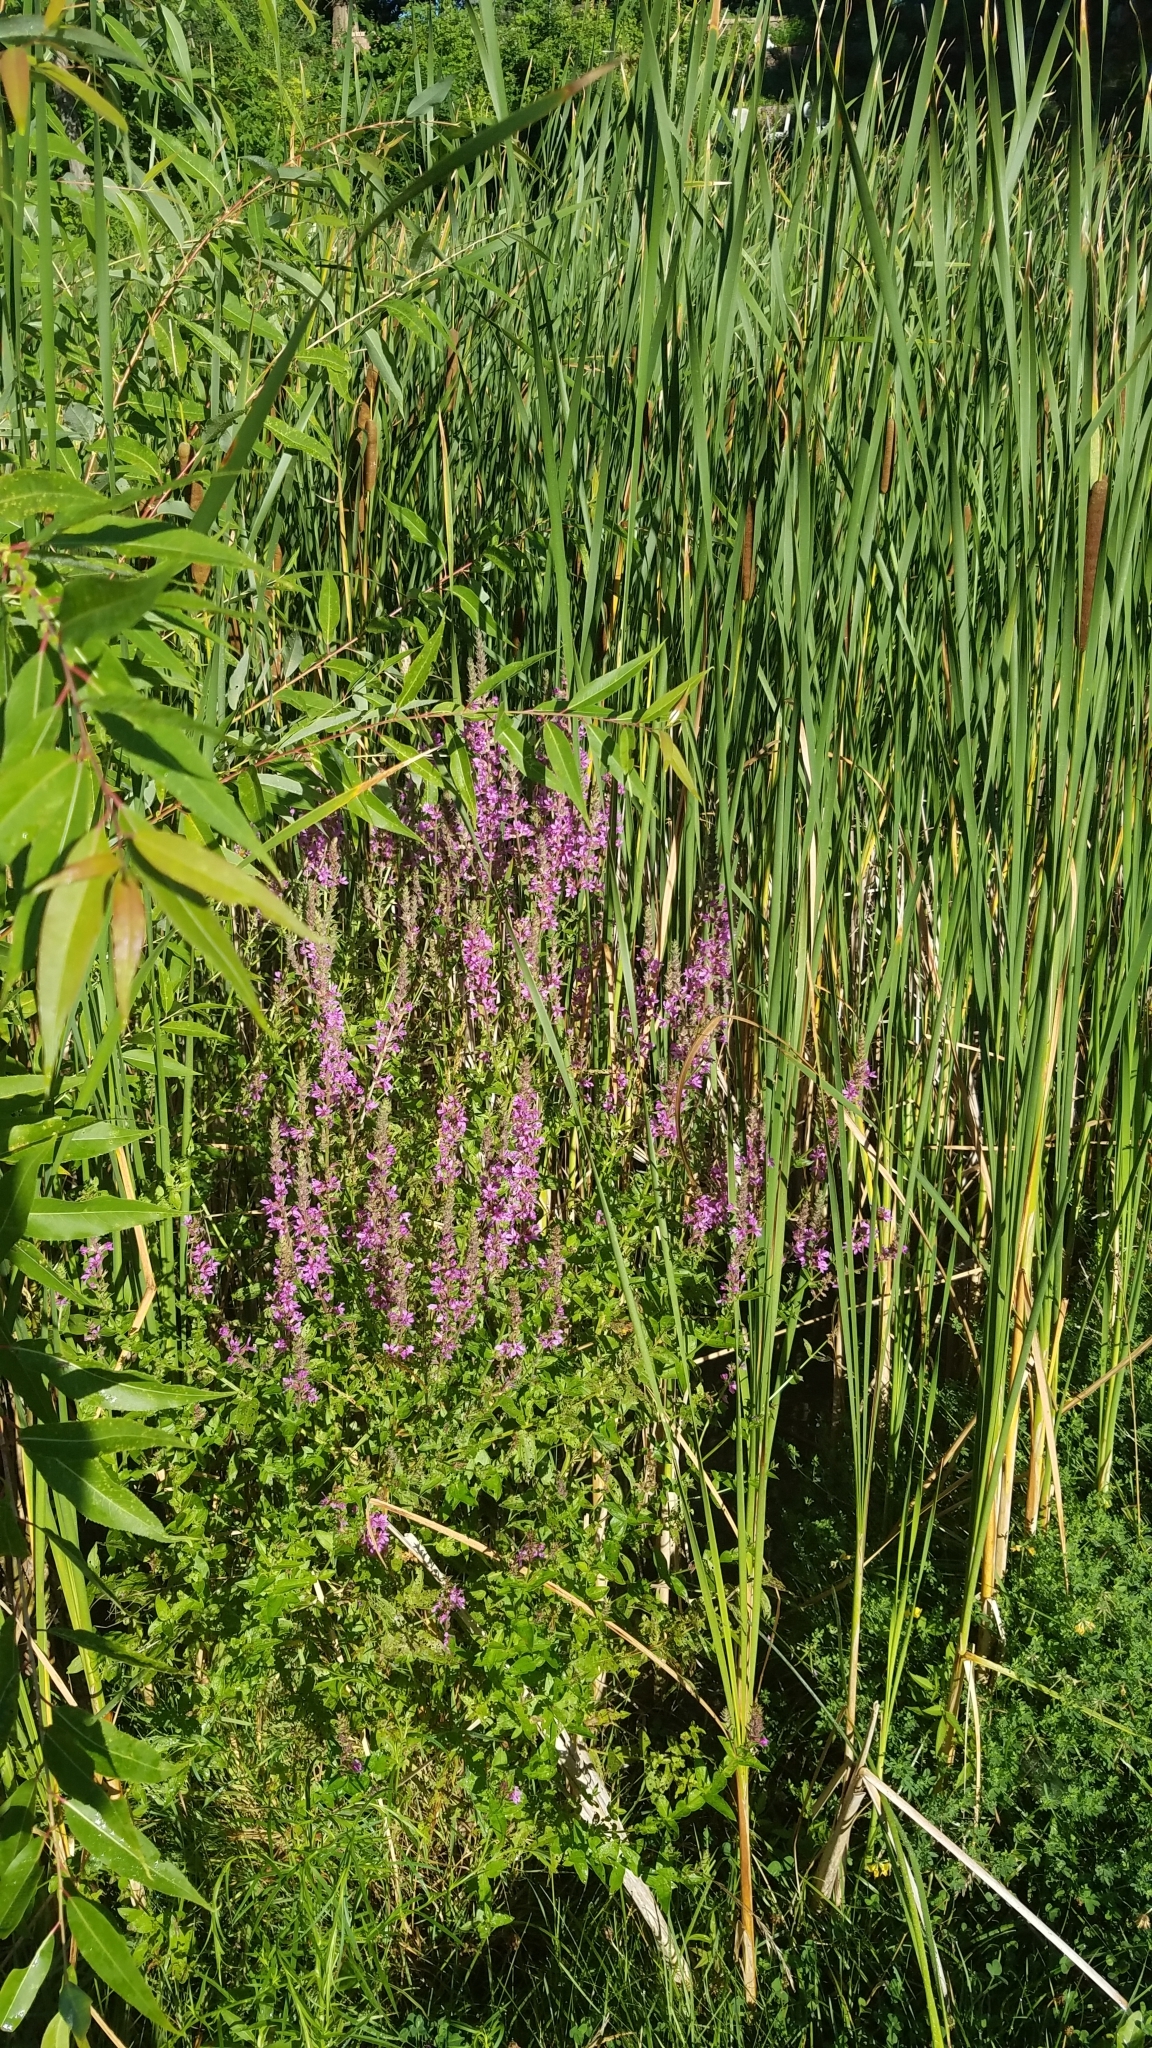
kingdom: Plantae
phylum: Tracheophyta
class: Magnoliopsida
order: Myrtales
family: Lythraceae
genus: Lythrum
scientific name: Lythrum salicaria
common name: Purple loosestrife
